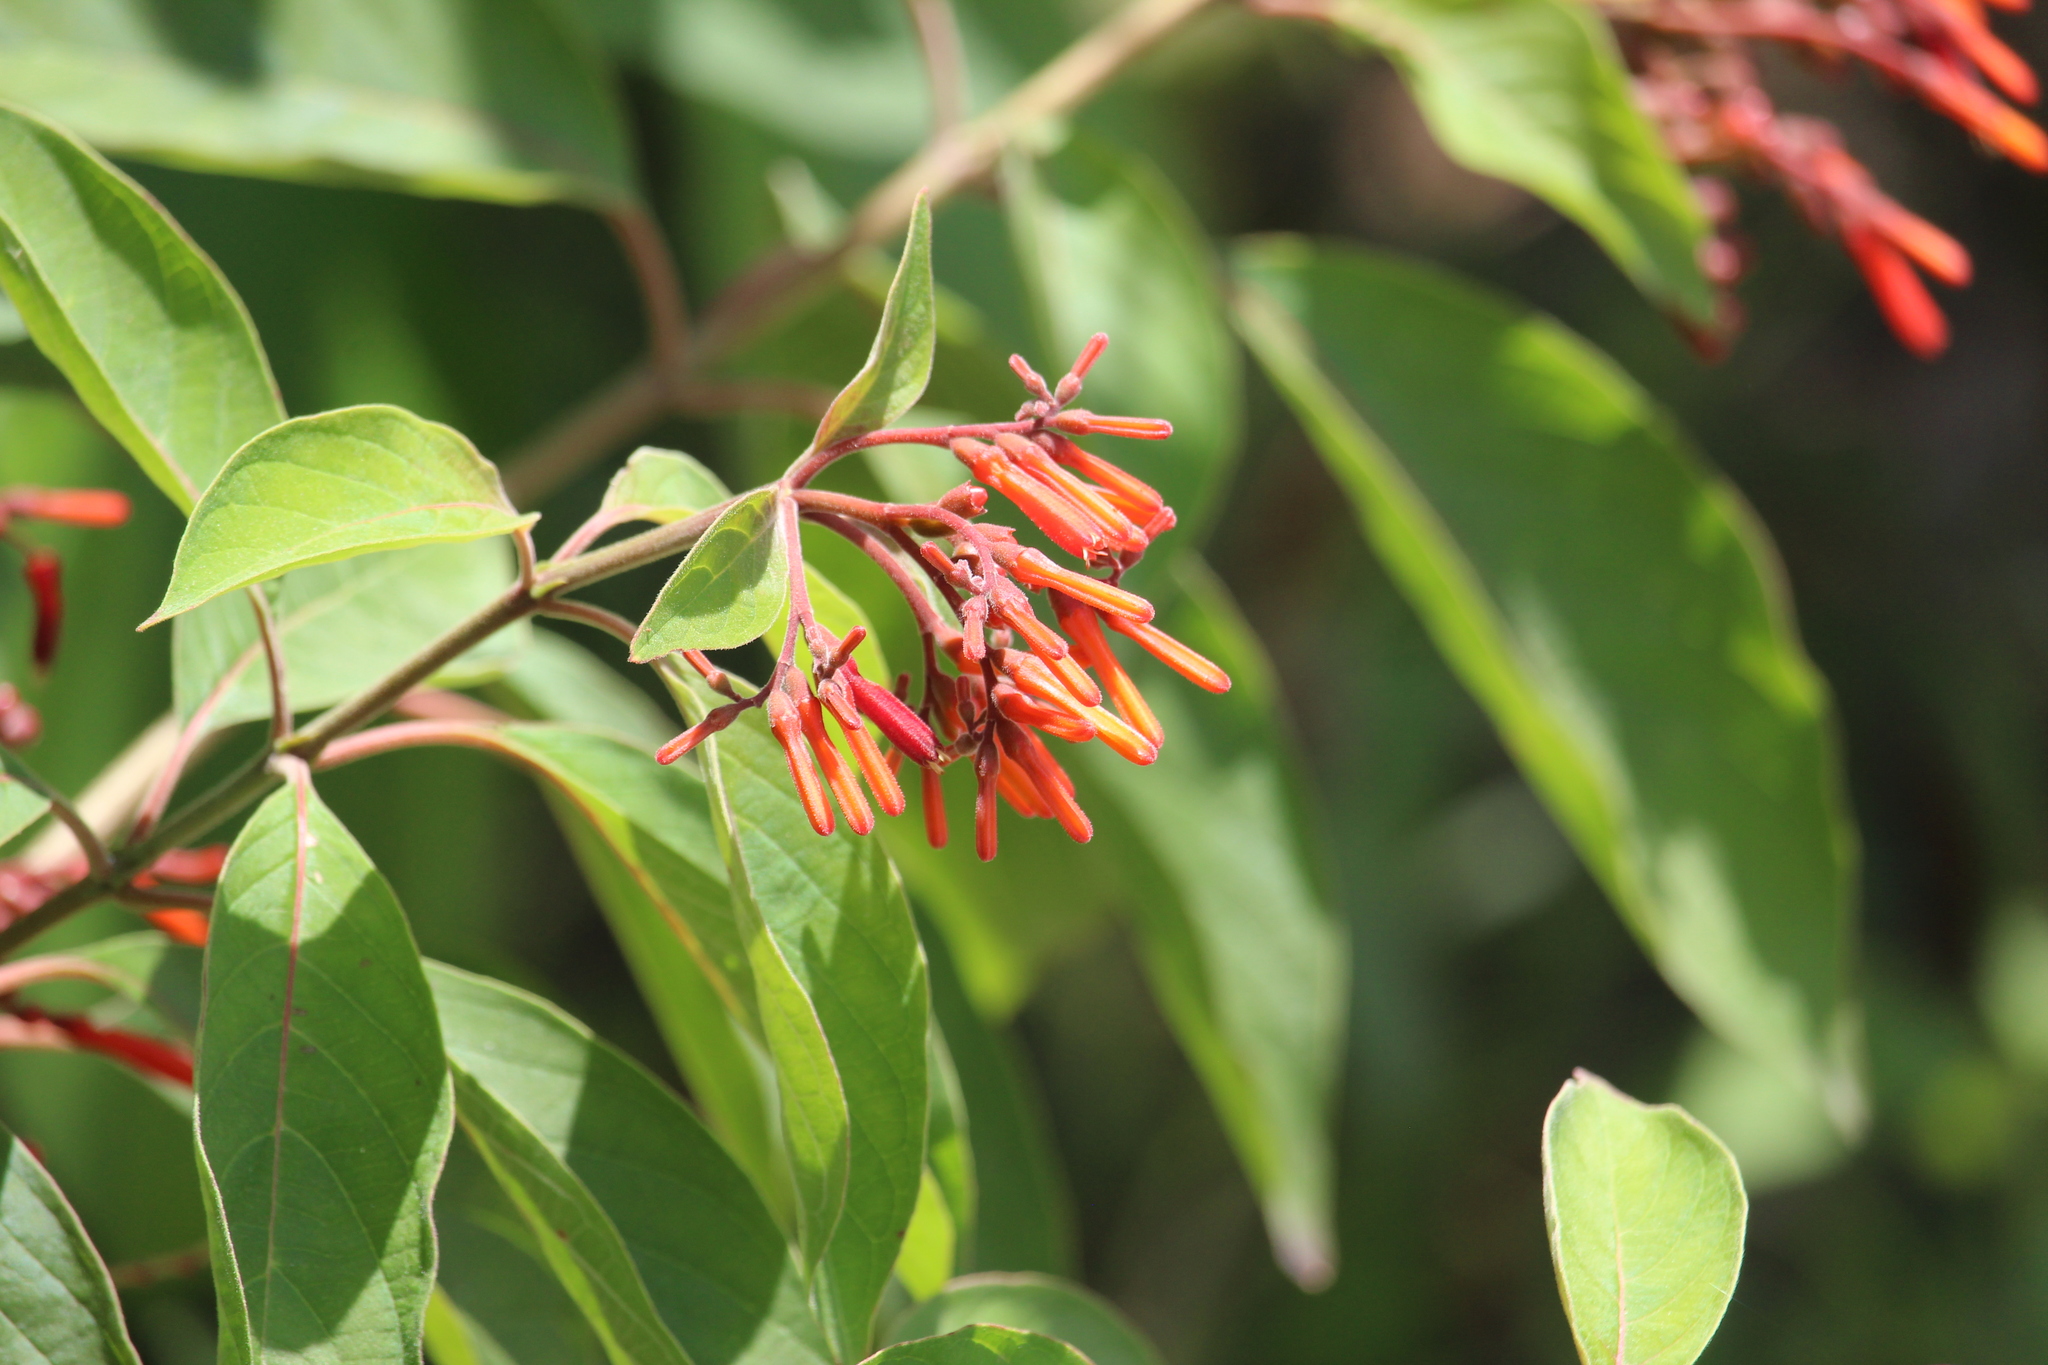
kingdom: Plantae
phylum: Tracheophyta
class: Magnoliopsida
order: Gentianales
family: Rubiaceae
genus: Hamelia
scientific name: Hamelia patens
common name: Redhead
